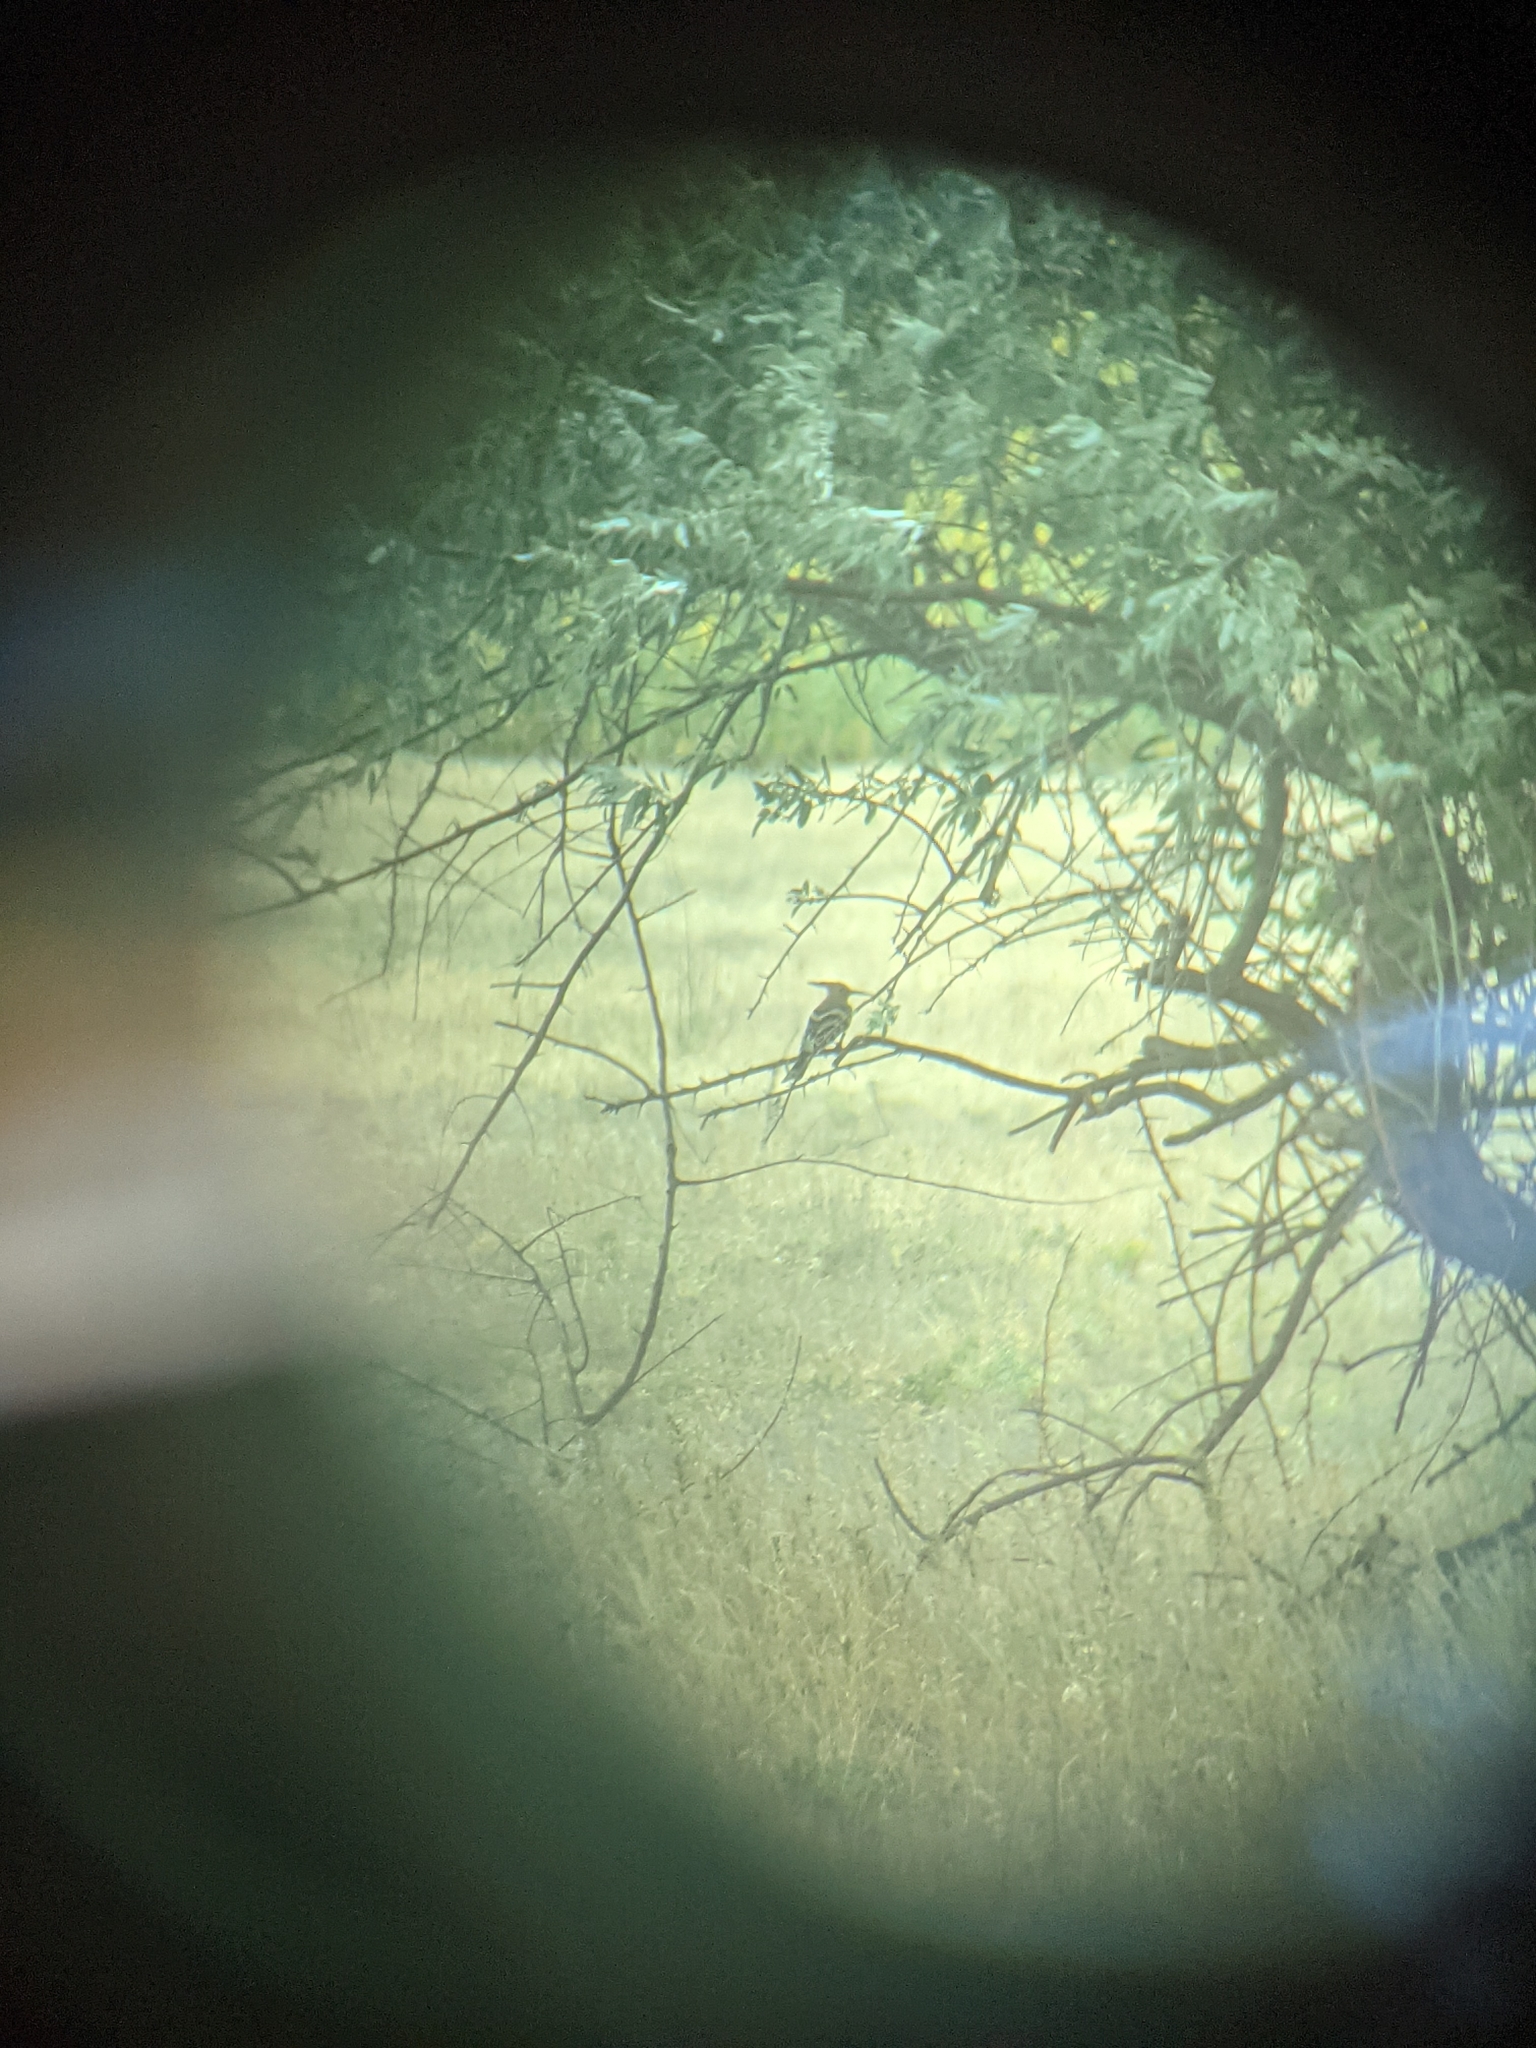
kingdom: Animalia
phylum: Chordata
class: Aves
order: Bucerotiformes
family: Upupidae
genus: Upupa
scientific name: Upupa epops
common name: Eurasian hoopoe
